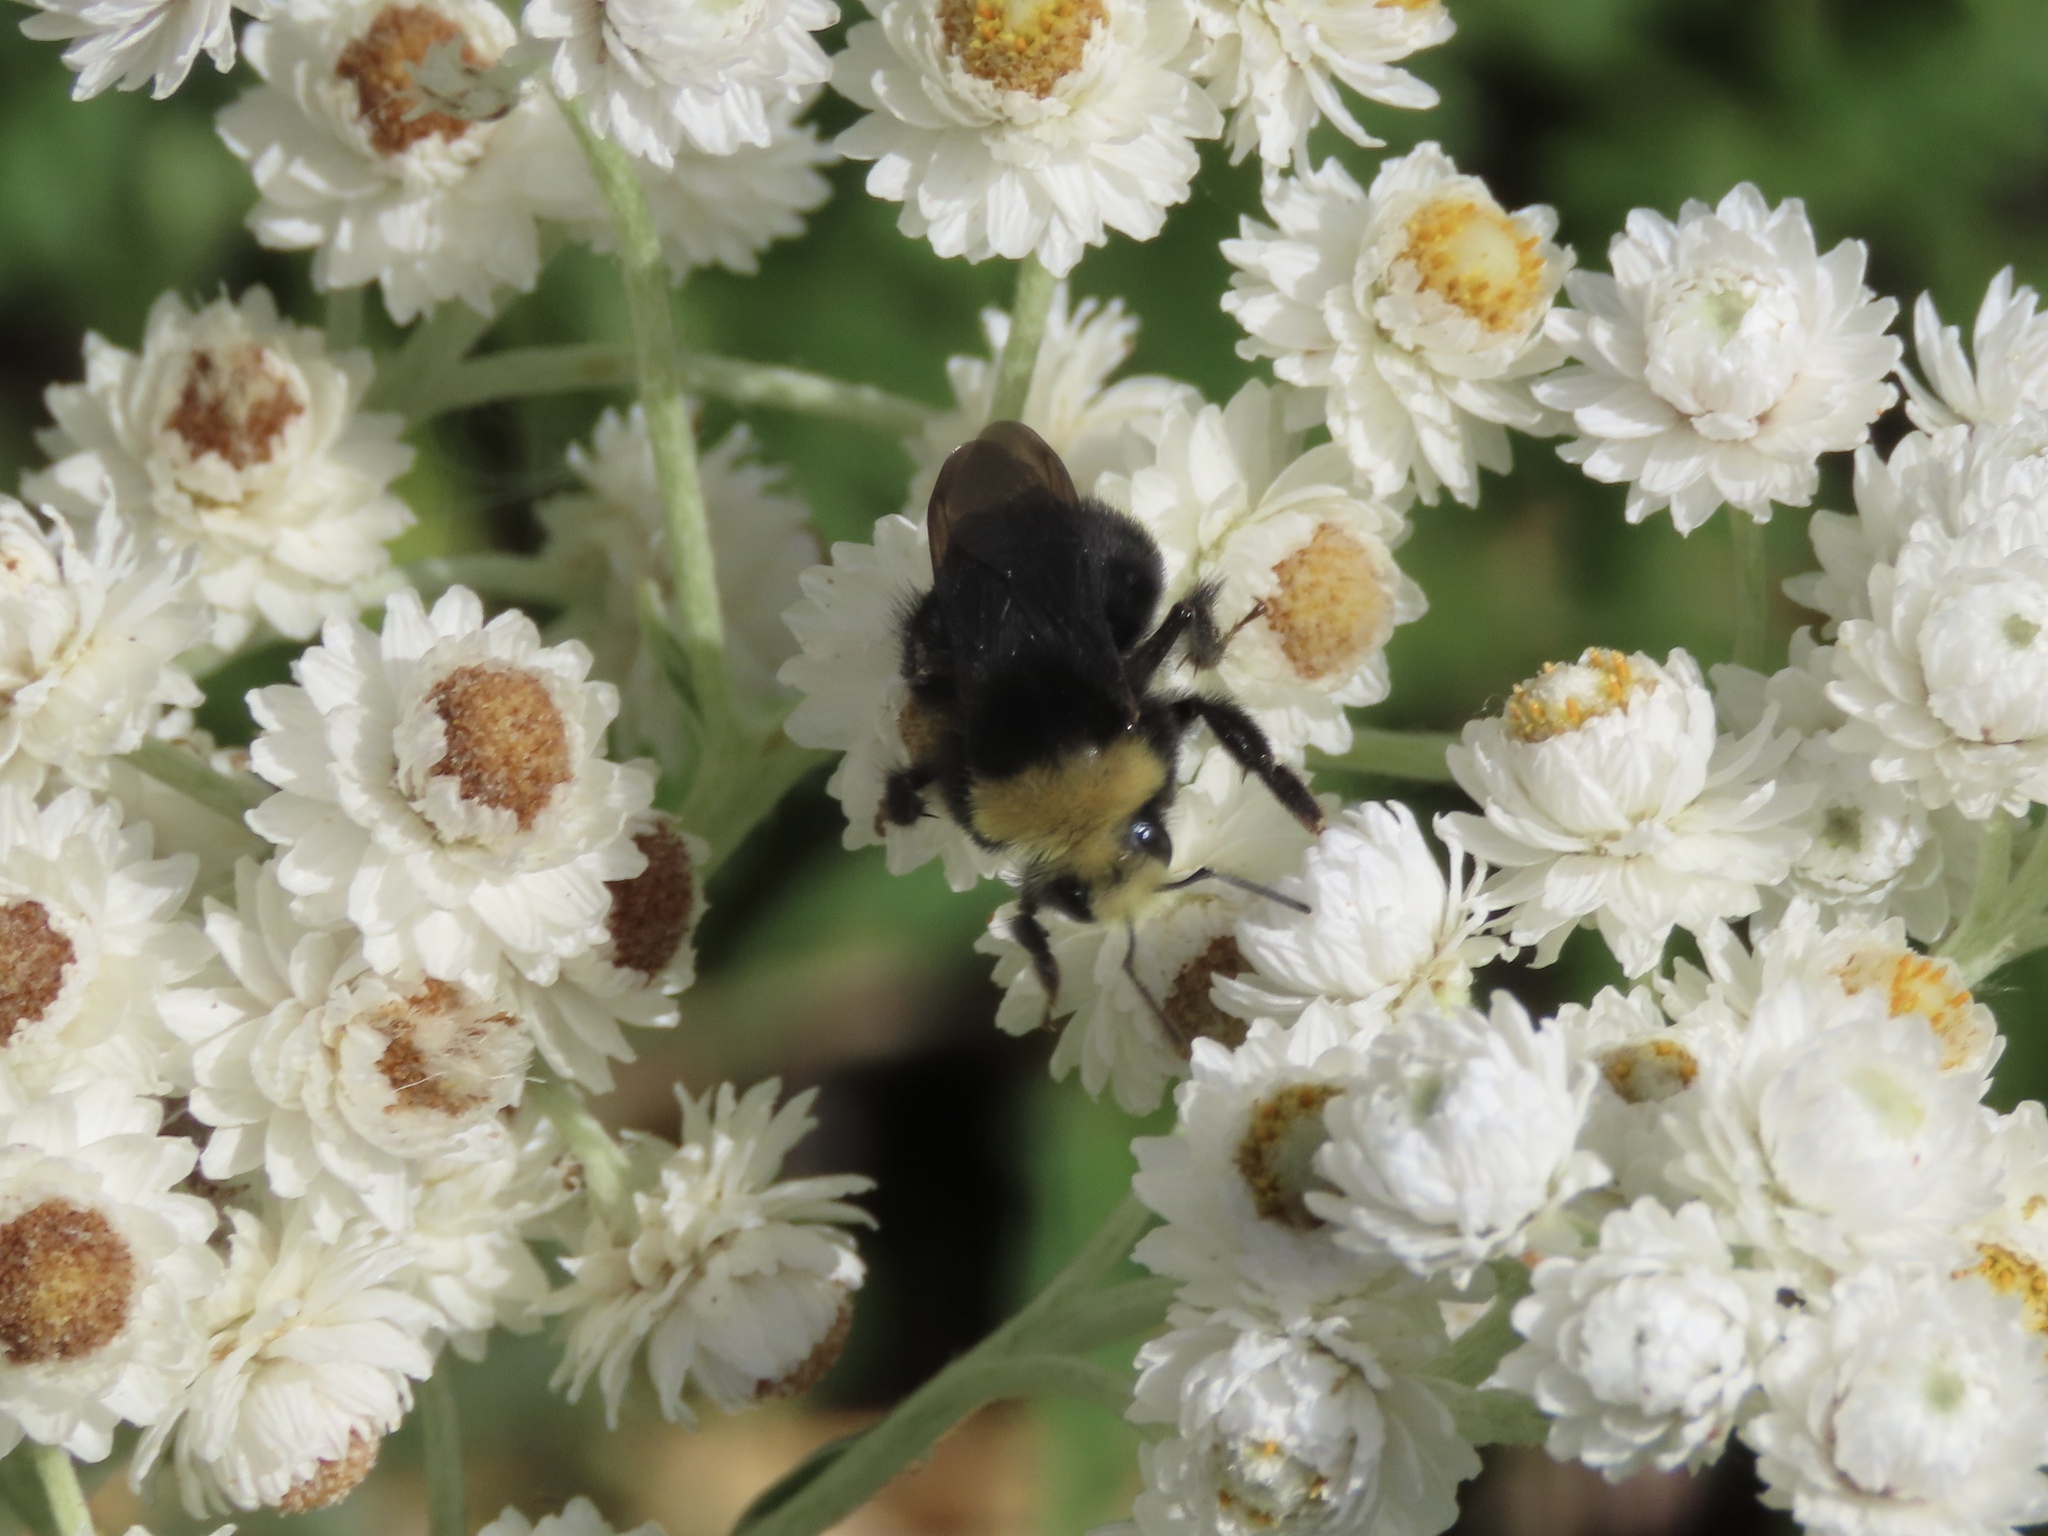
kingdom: Animalia
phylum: Arthropoda
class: Insecta
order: Hymenoptera
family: Apidae
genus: Bombus
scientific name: Bombus vosnesenskii
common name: Vosnesensky bumble bee
